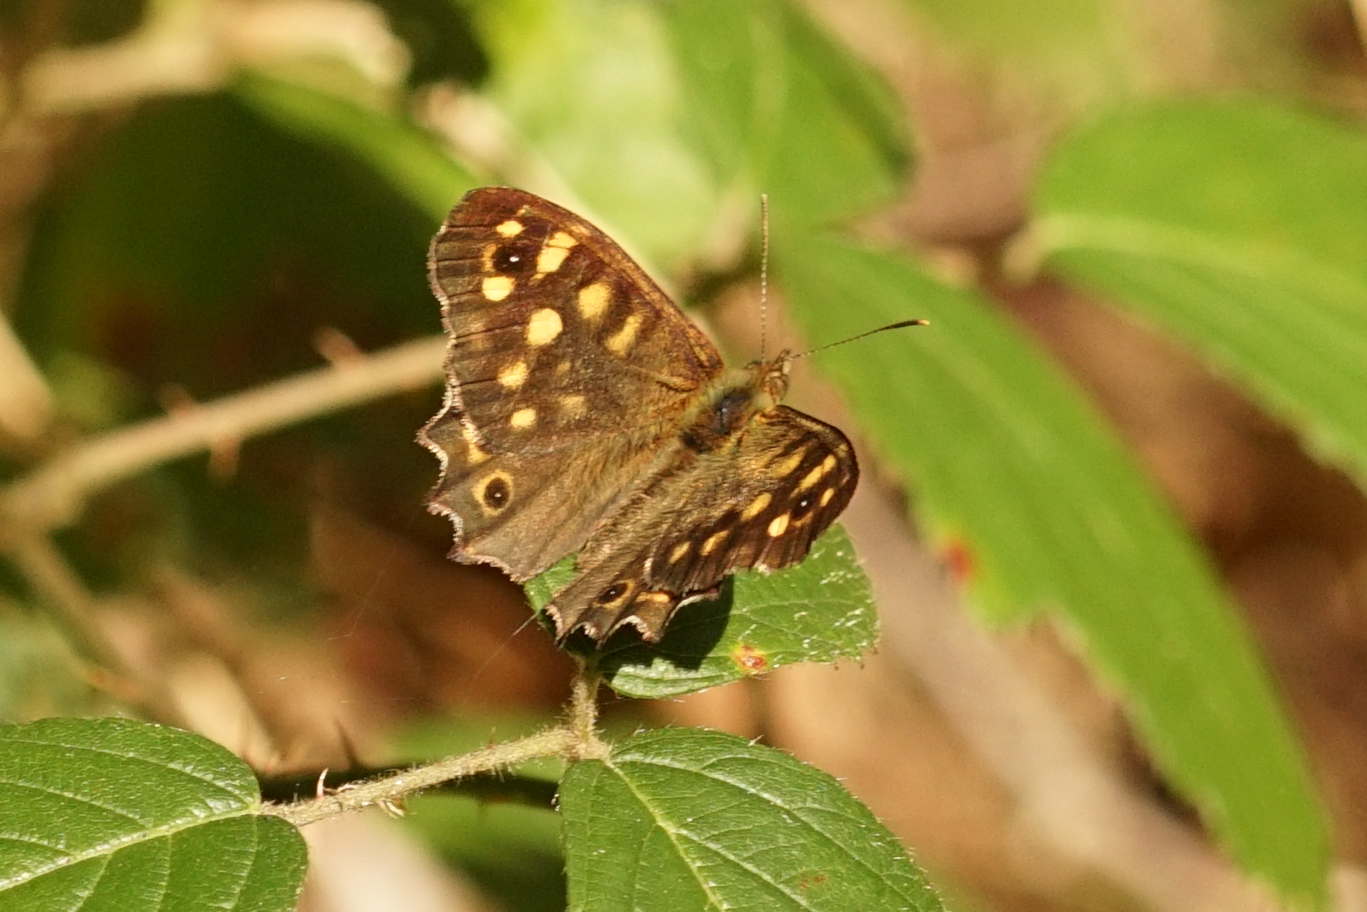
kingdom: Animalia
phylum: Arthropoda
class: Insecta
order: Lepidoptera
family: Nymphalidae
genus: Pararge
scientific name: Pararge aegeria
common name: Speckled wood
